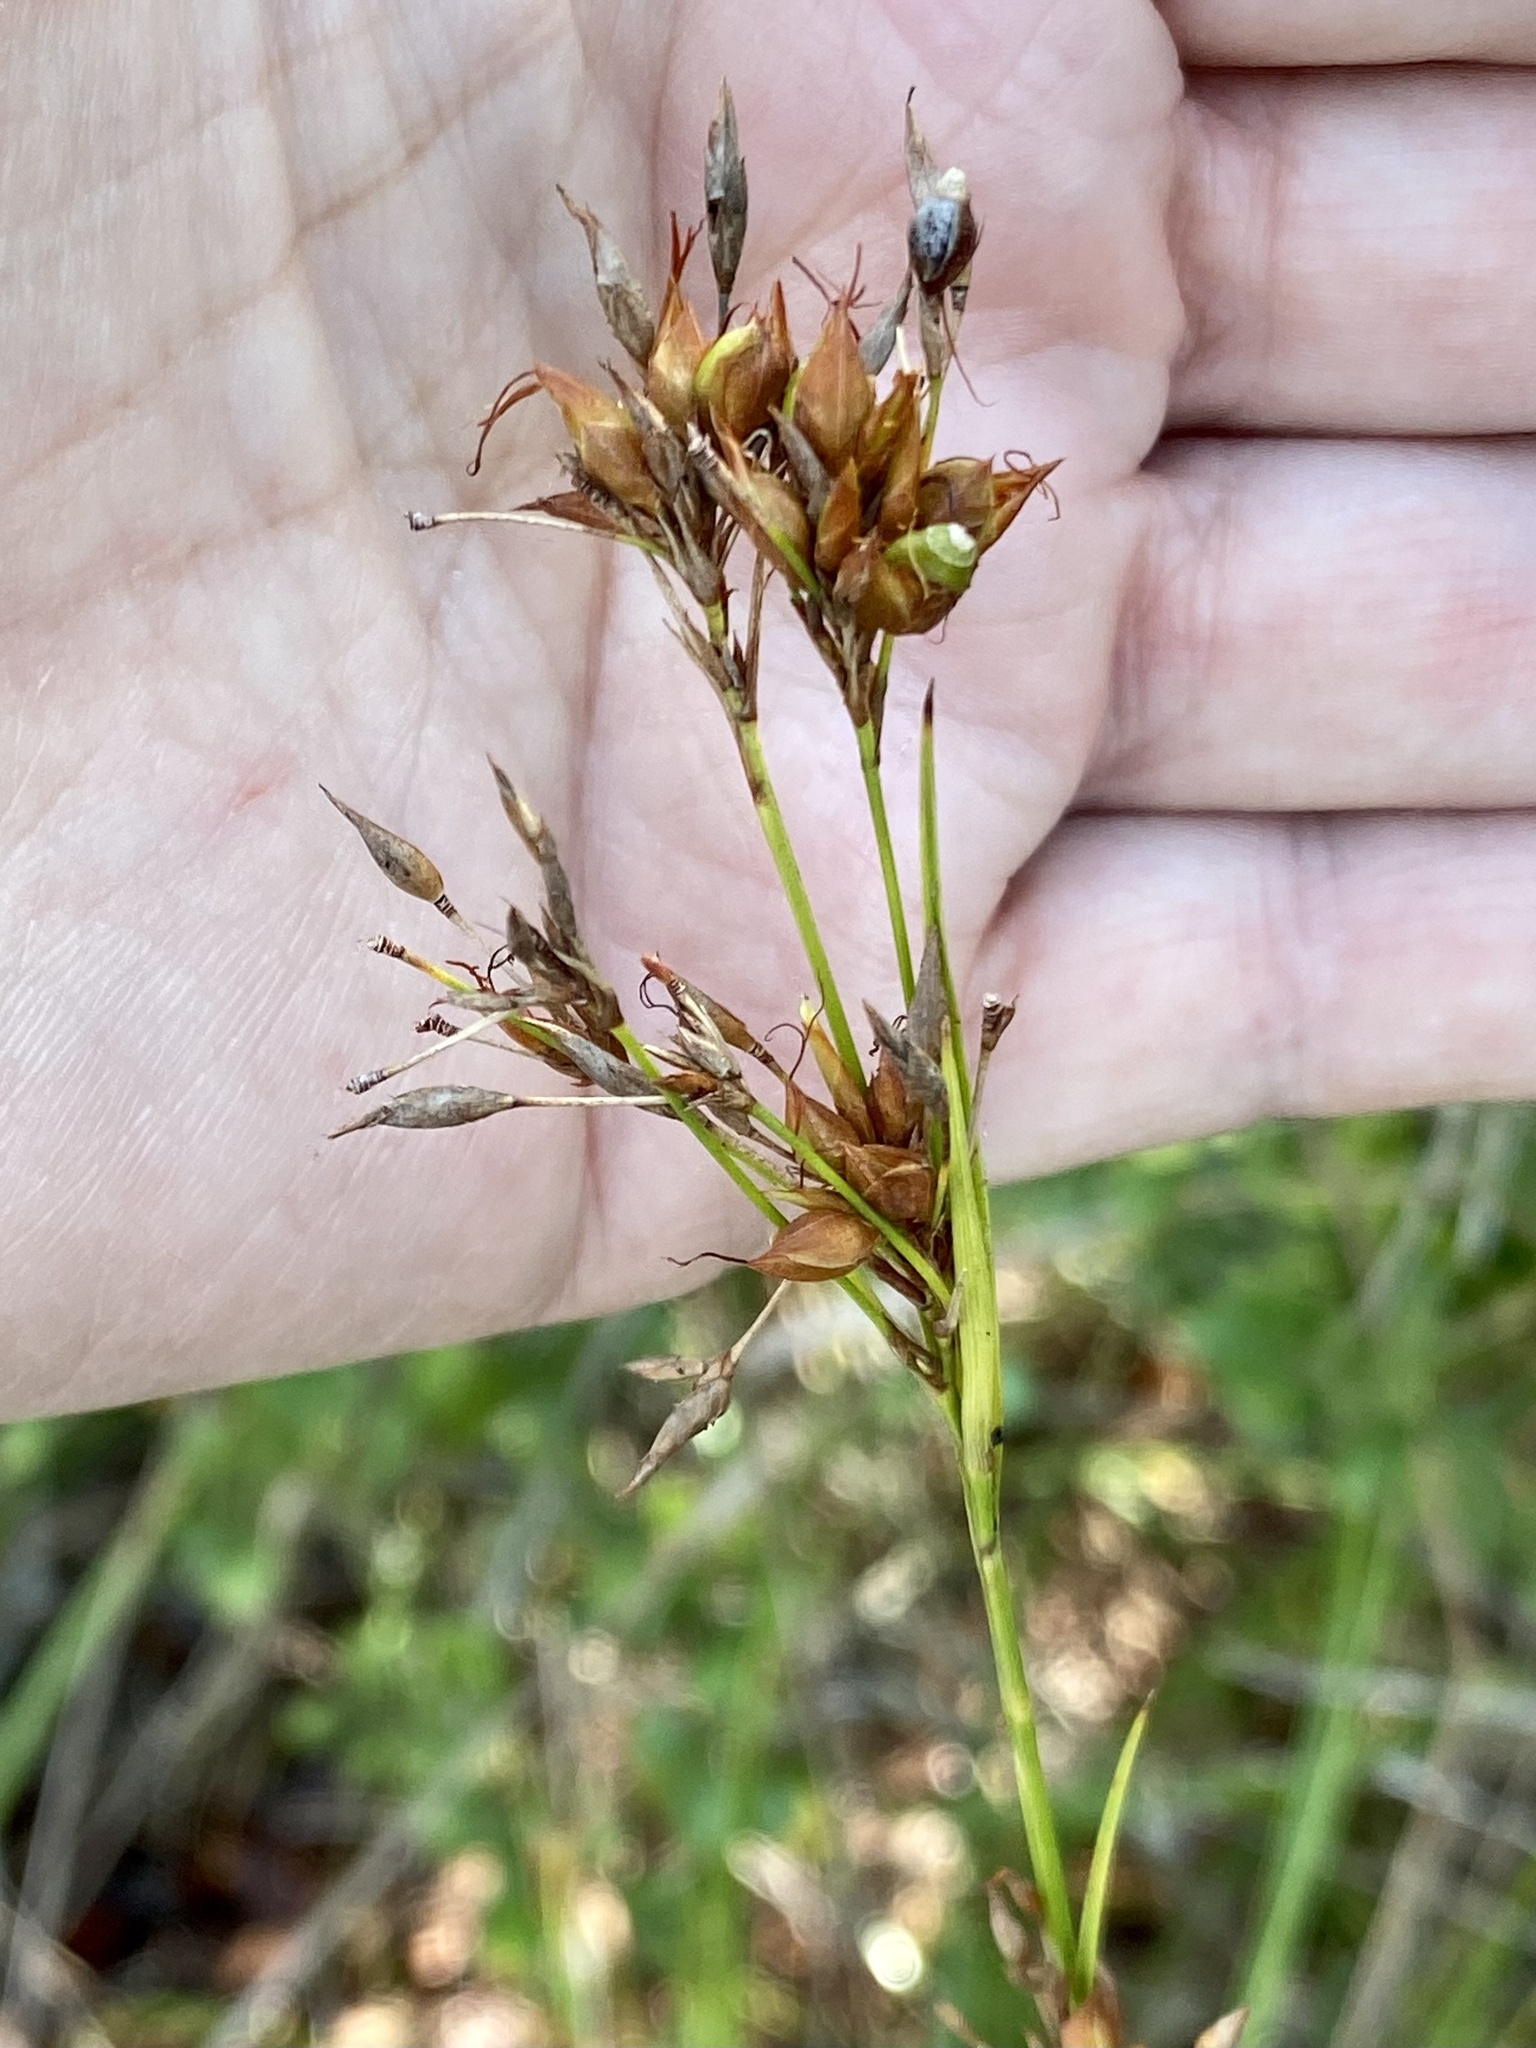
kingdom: Plantae
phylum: Tracheophyta
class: Liliopsida
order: Poales
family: Cyperaceae
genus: Rhynchospora
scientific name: Rhynchospora megalocarpa
